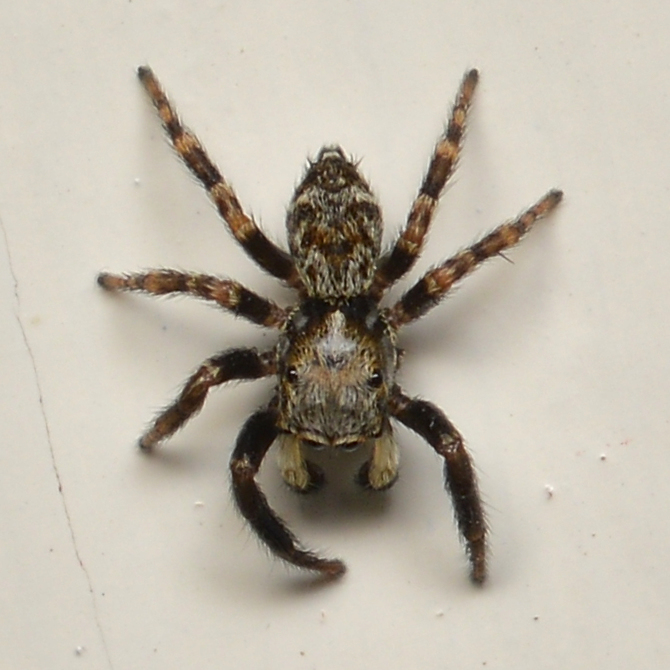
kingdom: Animalia
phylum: Arthropoda
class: Arachnida
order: Araneae
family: Salticidae
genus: Pseudeuophrys
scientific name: Pseudeuophrys erratica
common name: Jumping spider
